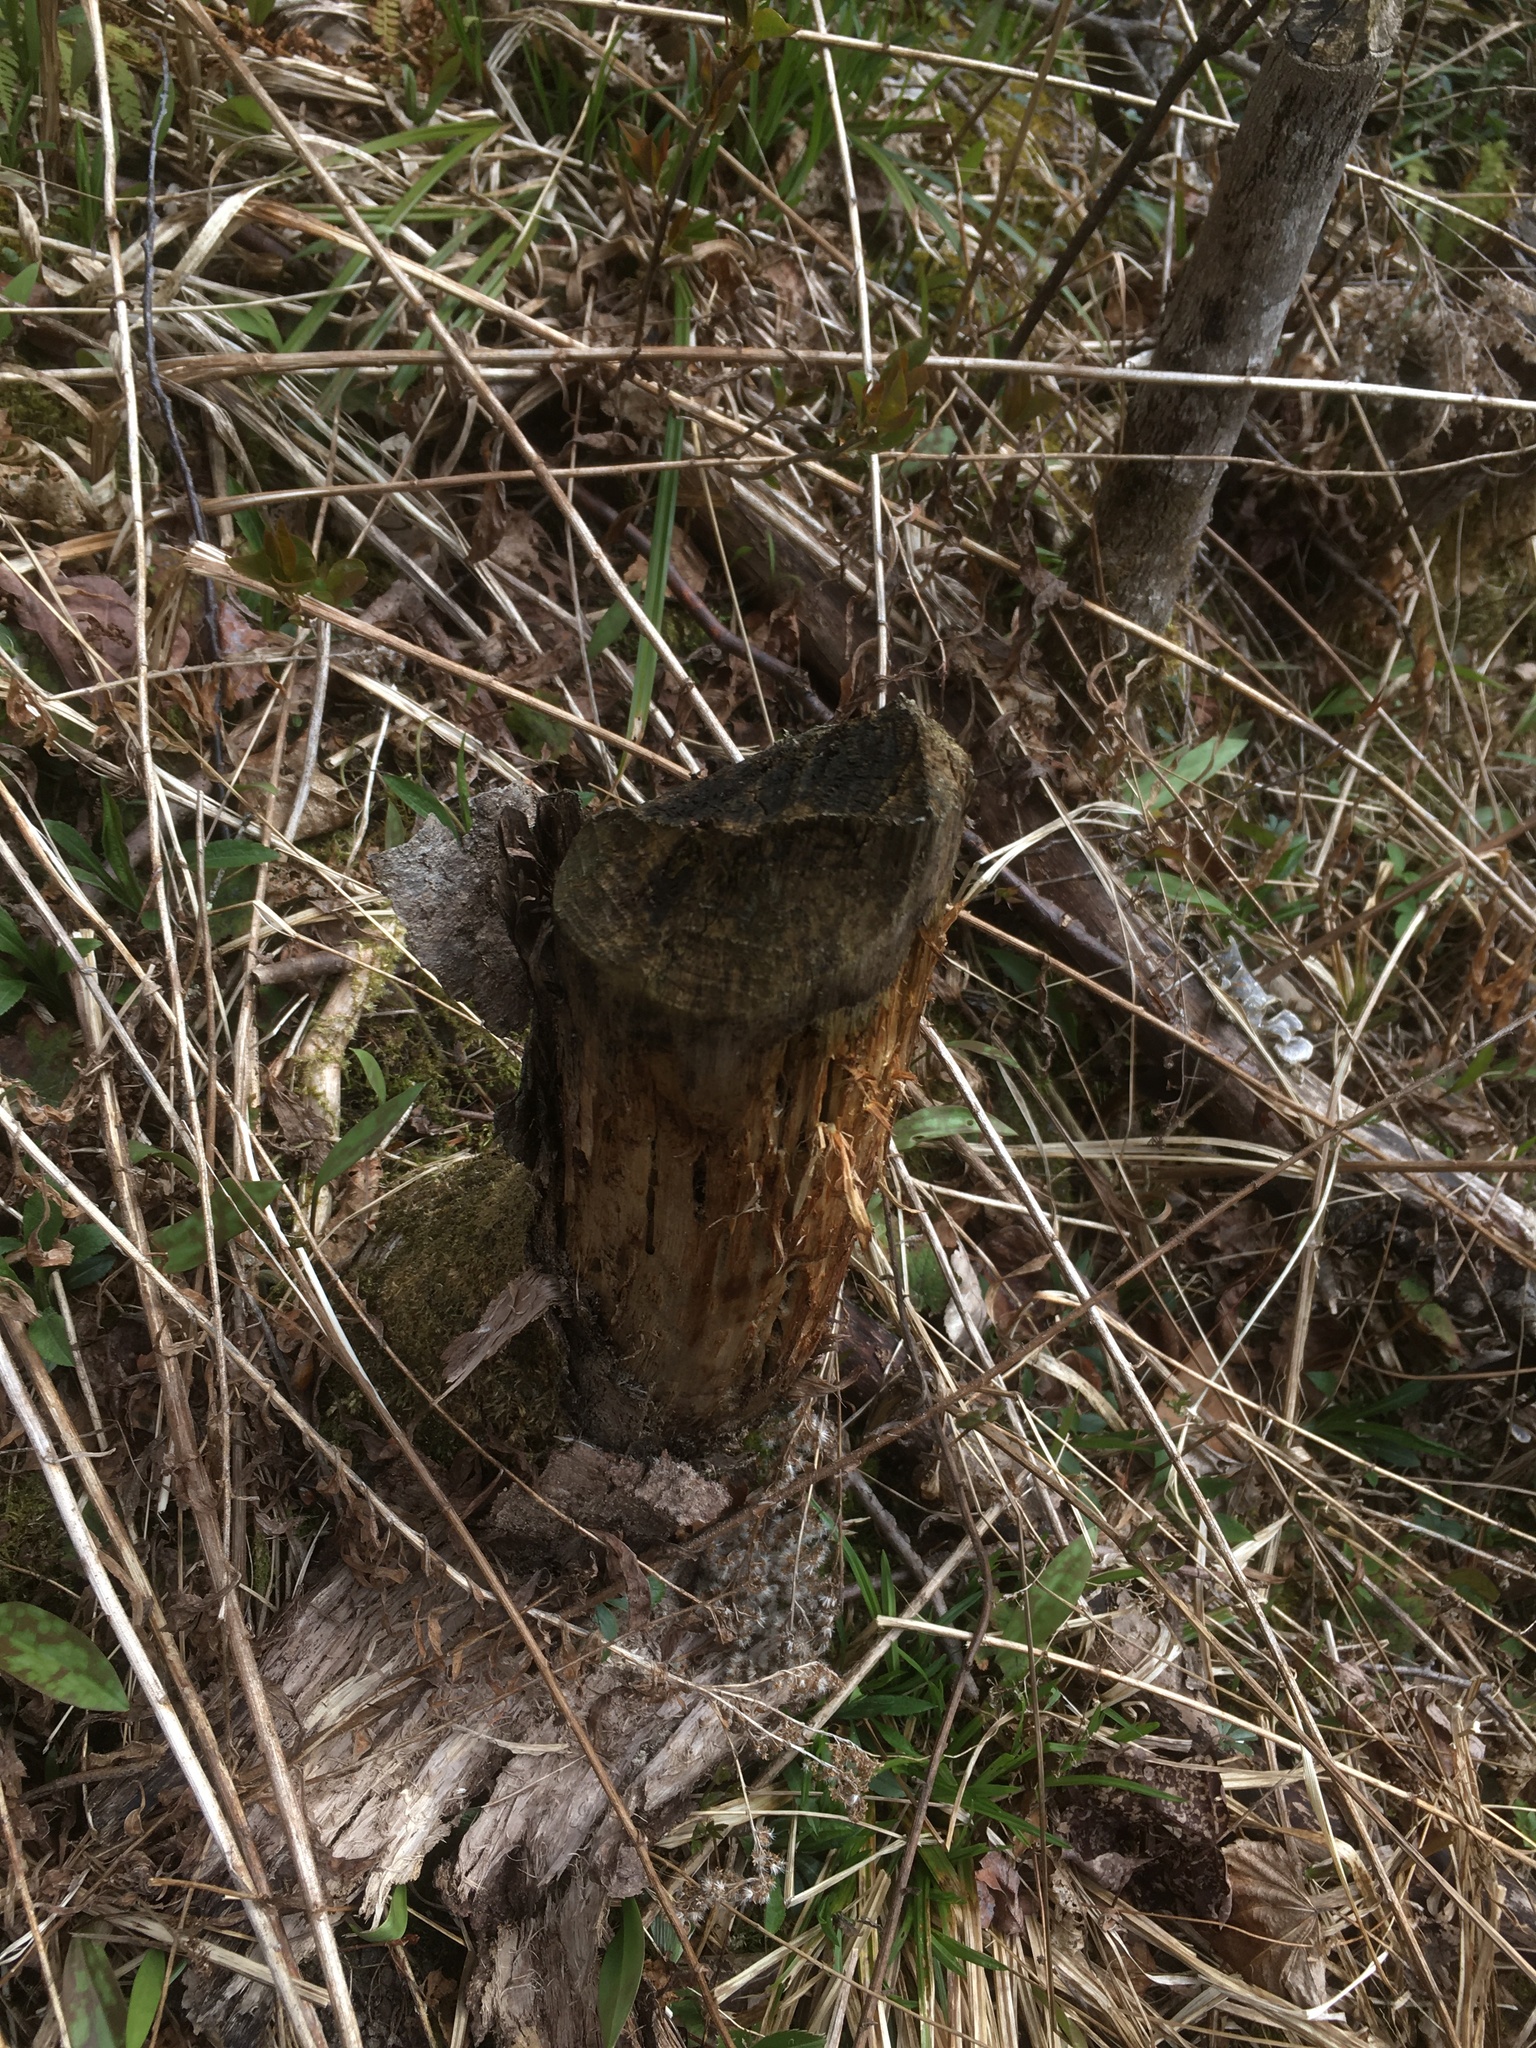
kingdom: Animalia
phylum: Chordata
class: Mammalia
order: Rodentia
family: Castoridae
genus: Castor
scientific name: Castor canadensis
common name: American beaver
